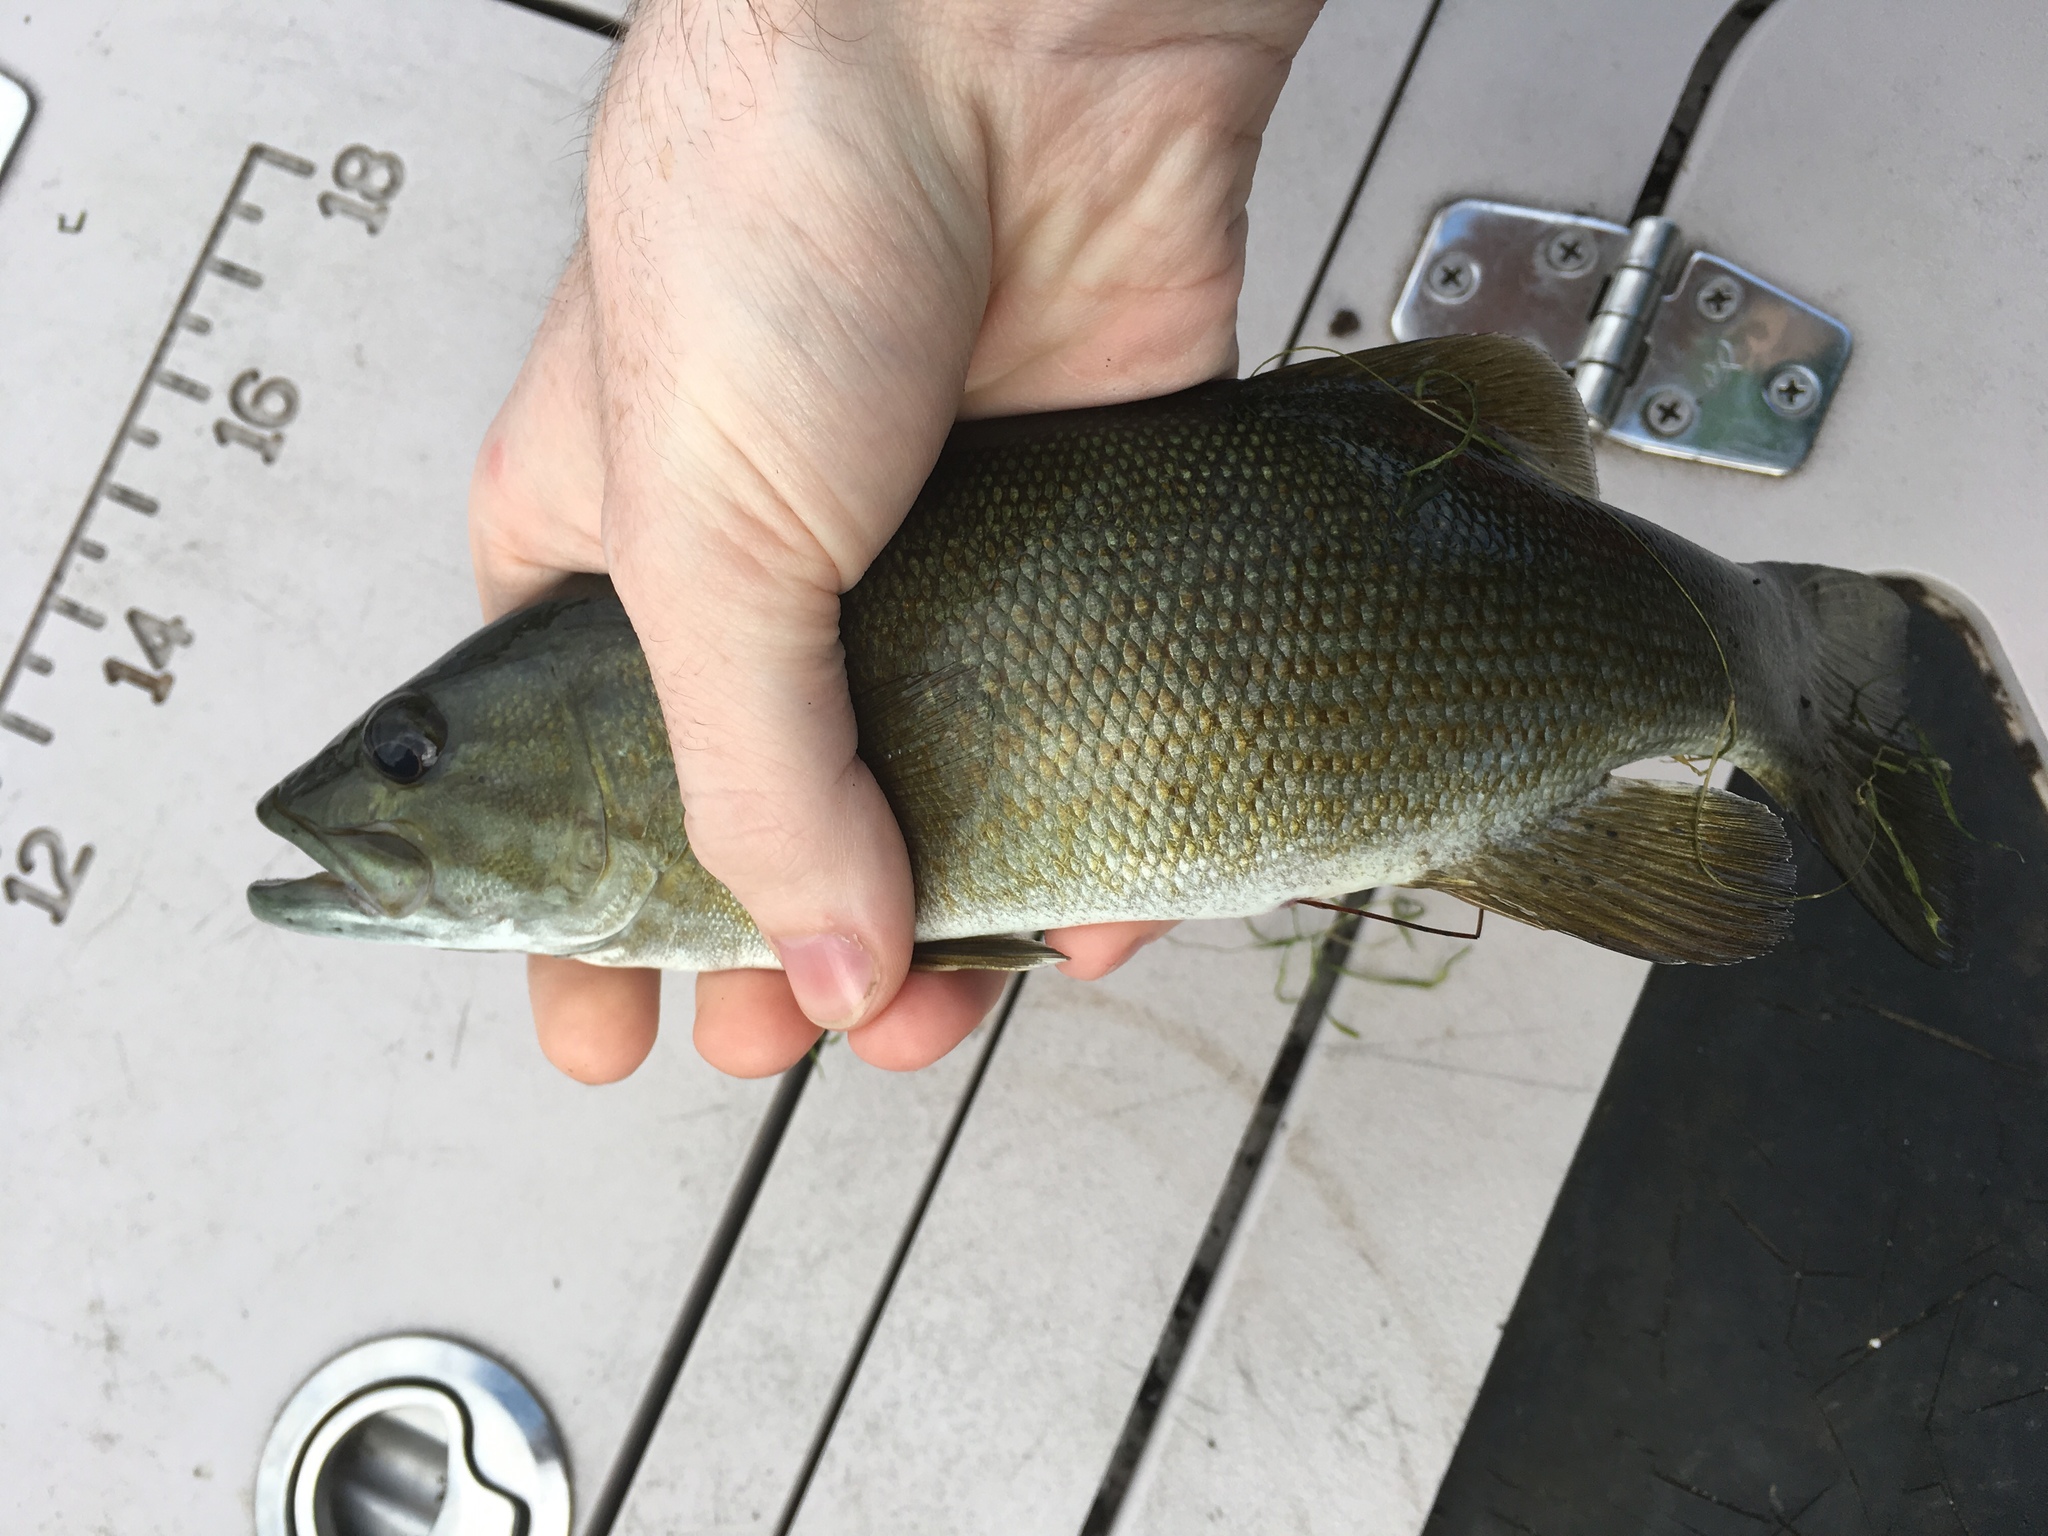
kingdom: Animalia
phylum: Chordata
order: Perciformes
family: Centrarchidae
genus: Micropterus
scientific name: Micropterus dolomieu
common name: Smallmouth bass
